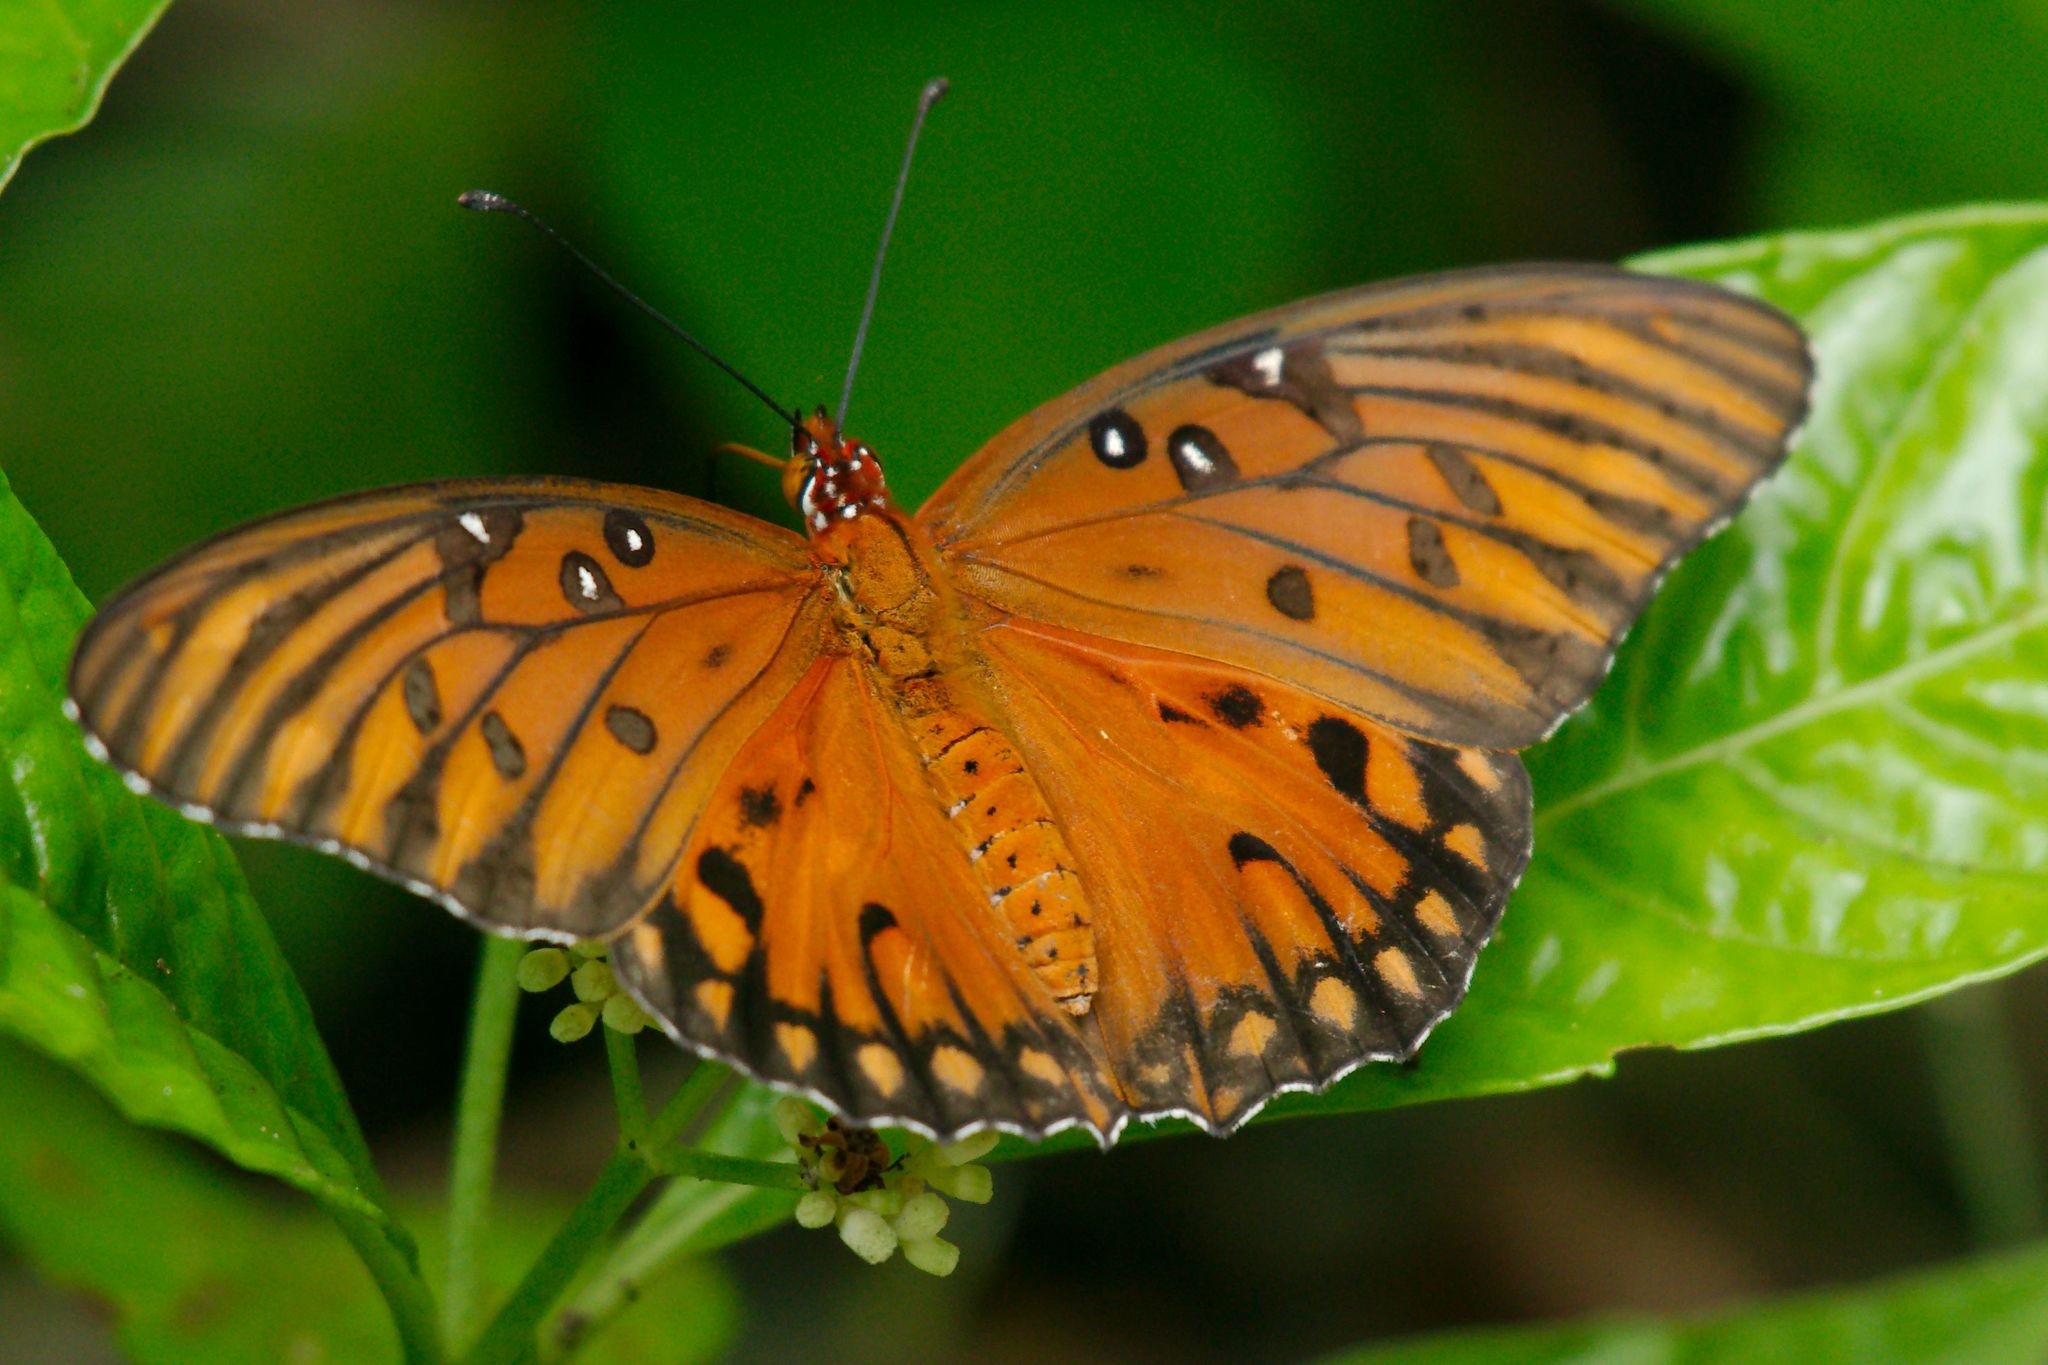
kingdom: Animalia
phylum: Arthropoda
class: Insecta
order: Lepidoptera
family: Nymphalidae
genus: Dione
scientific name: Dione vanillae
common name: Gulf fritillary
